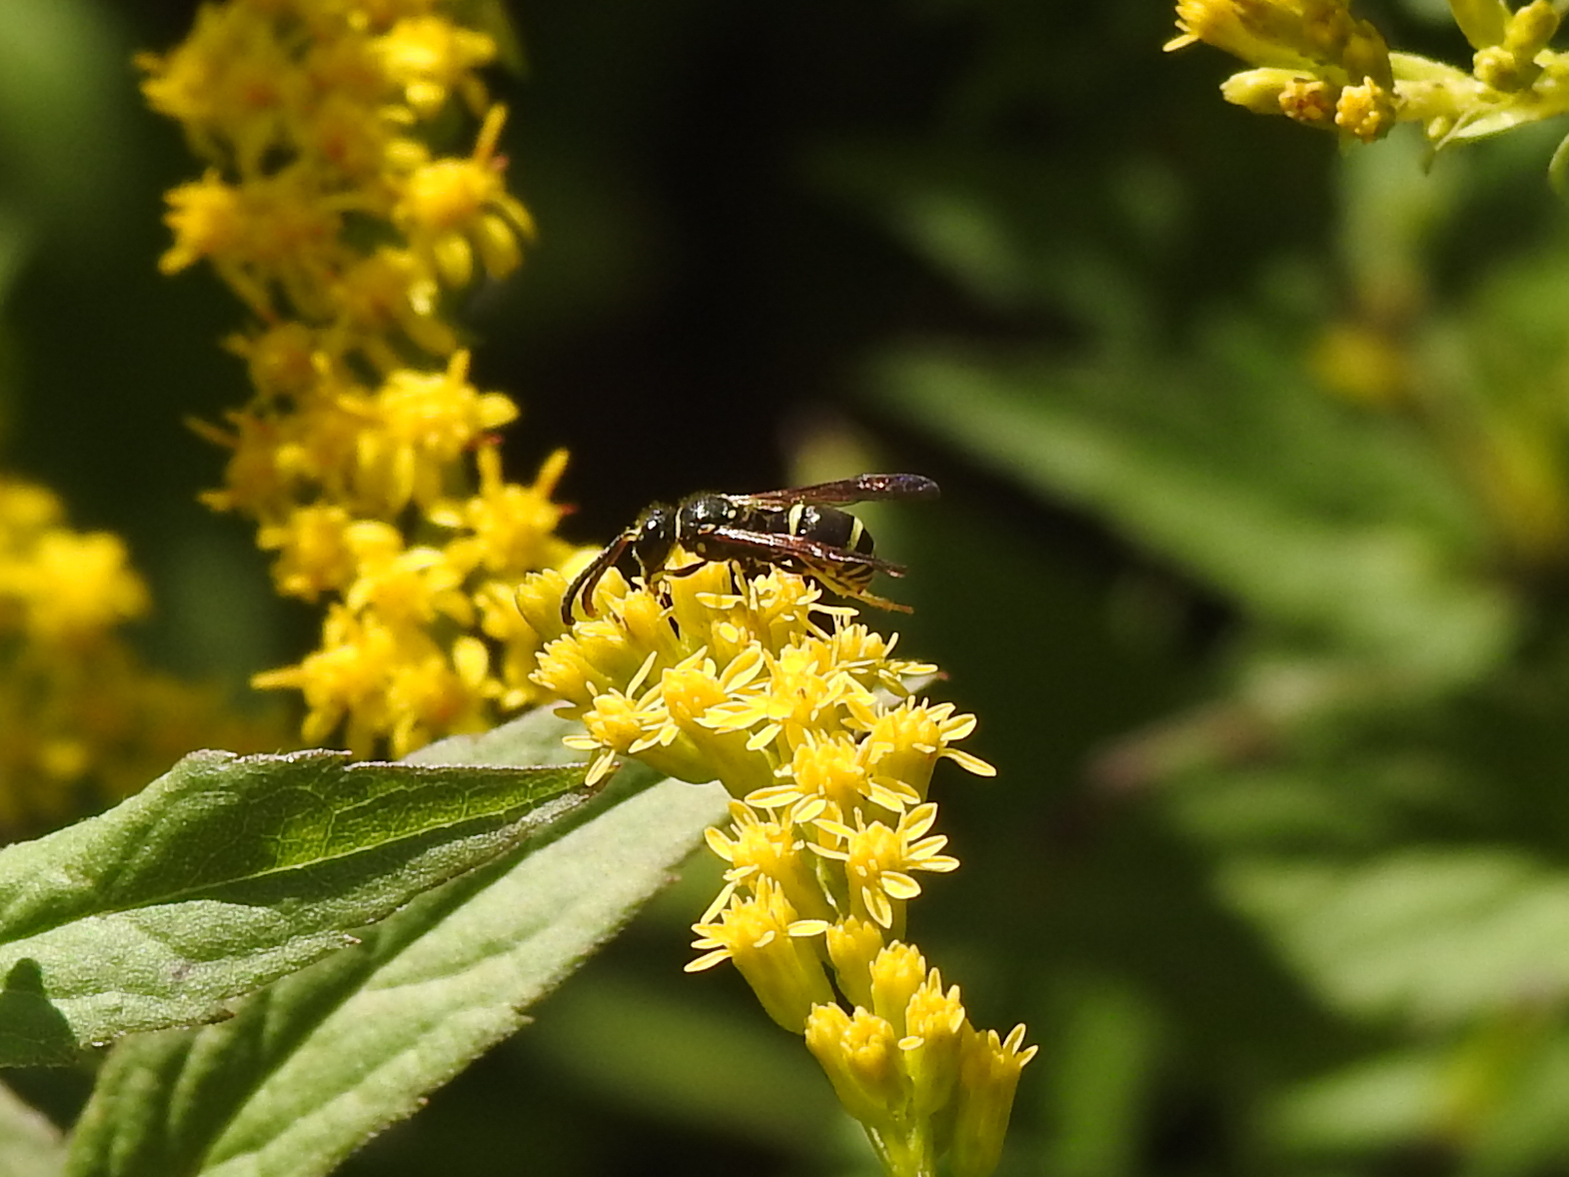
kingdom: Animalia
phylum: Arthropoda
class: Insecta
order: Hymenoptera
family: Vespidae
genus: Ancistrocerus
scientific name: Ancistrocerus adiabatus
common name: Bramble mason wasp
